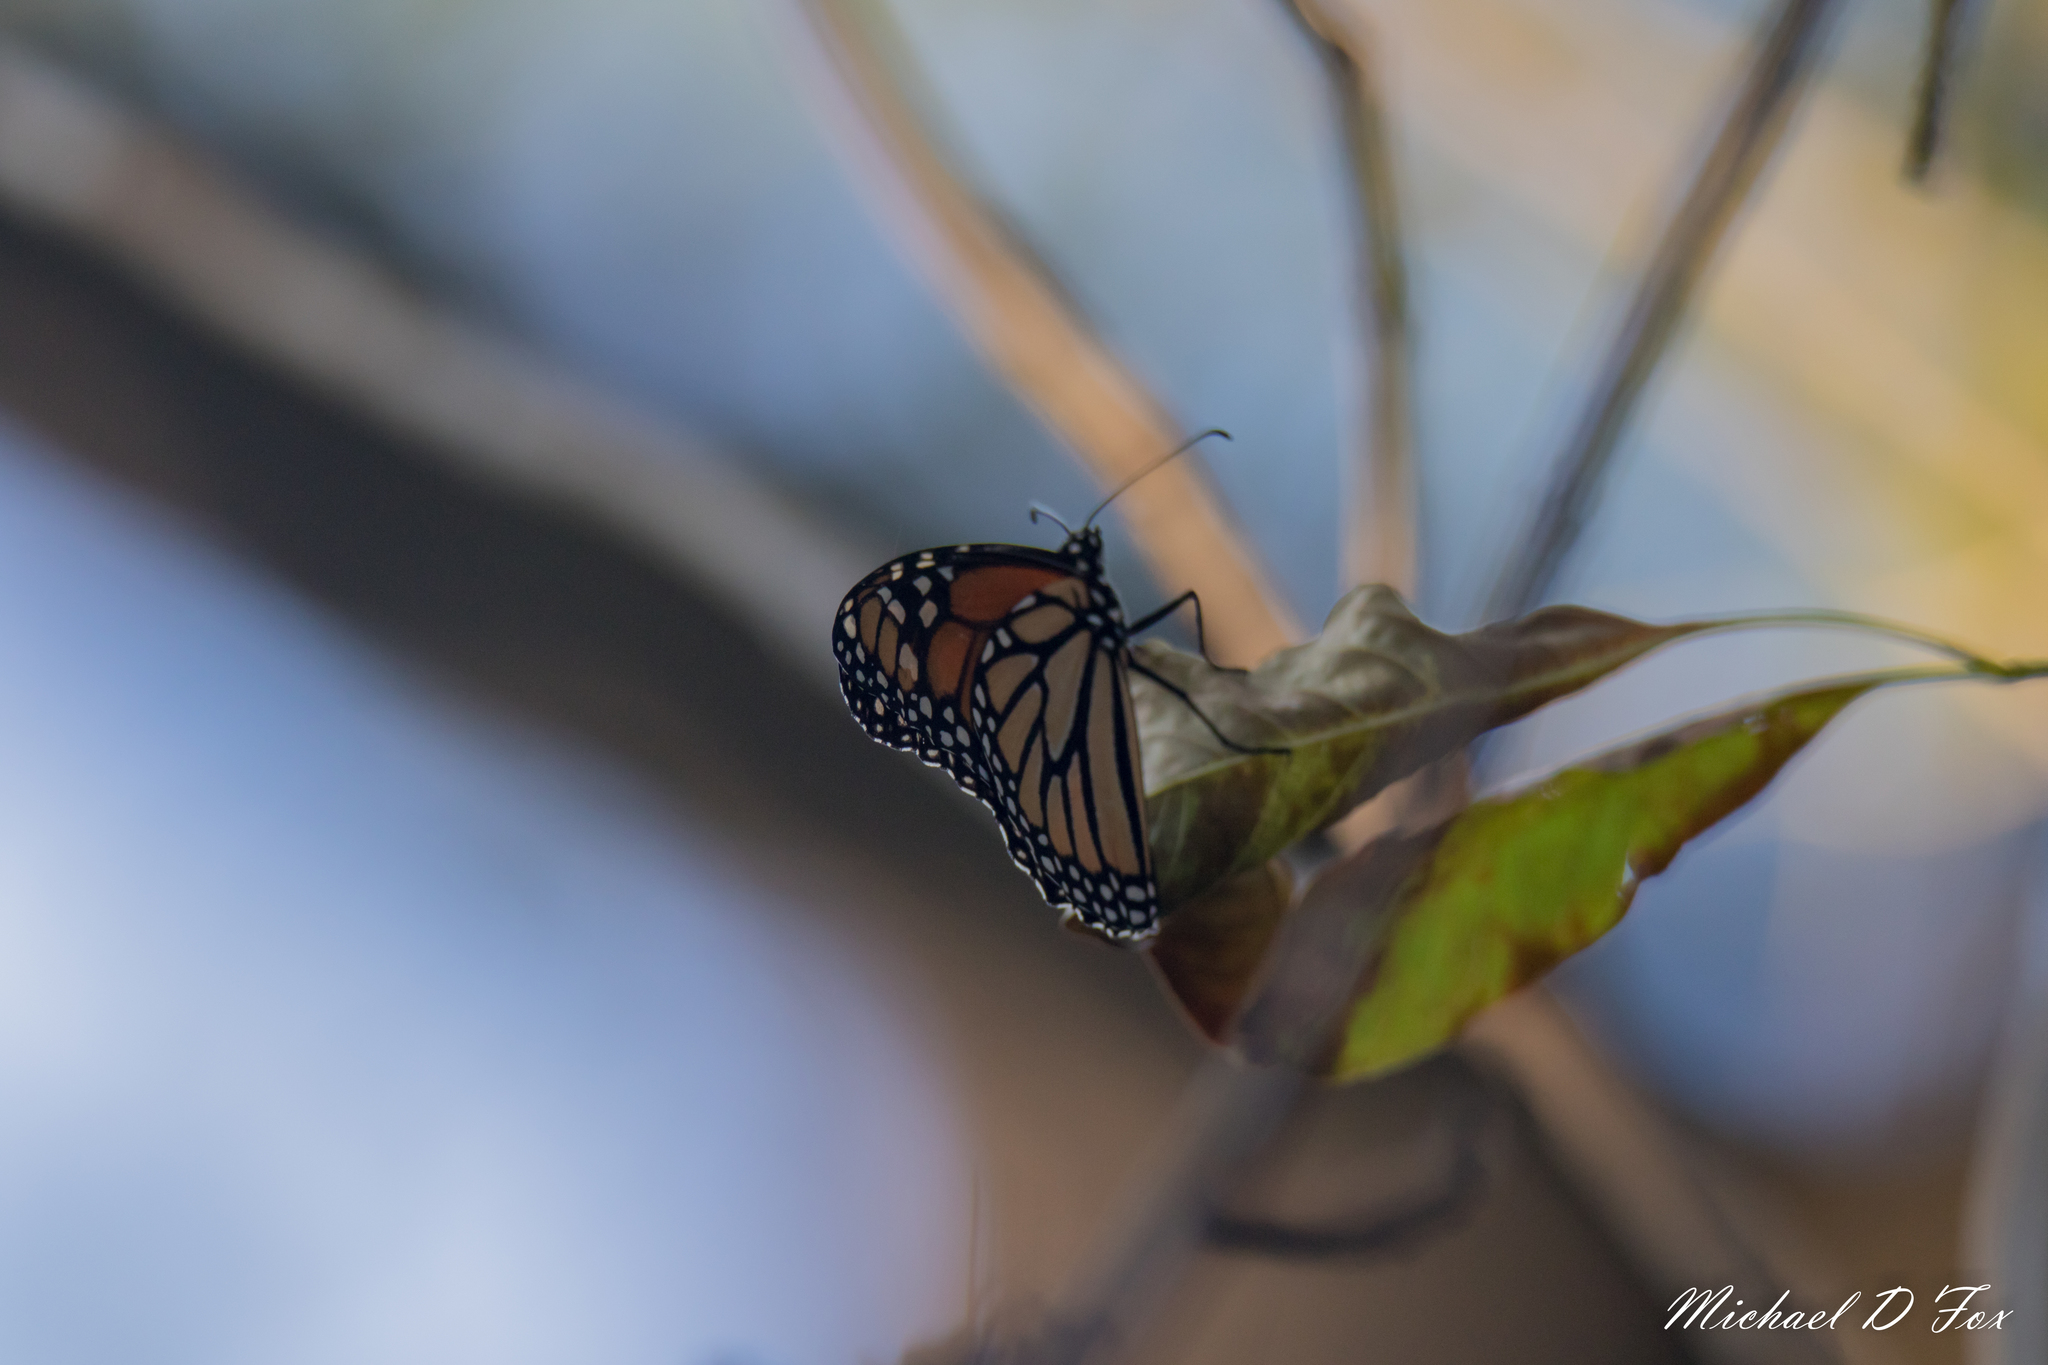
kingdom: Animalia
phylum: Arthropoda
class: Insecta
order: Lepidoptera
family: Nymphalidae
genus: Danaus
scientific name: Danaus plexippus
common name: Monarch
